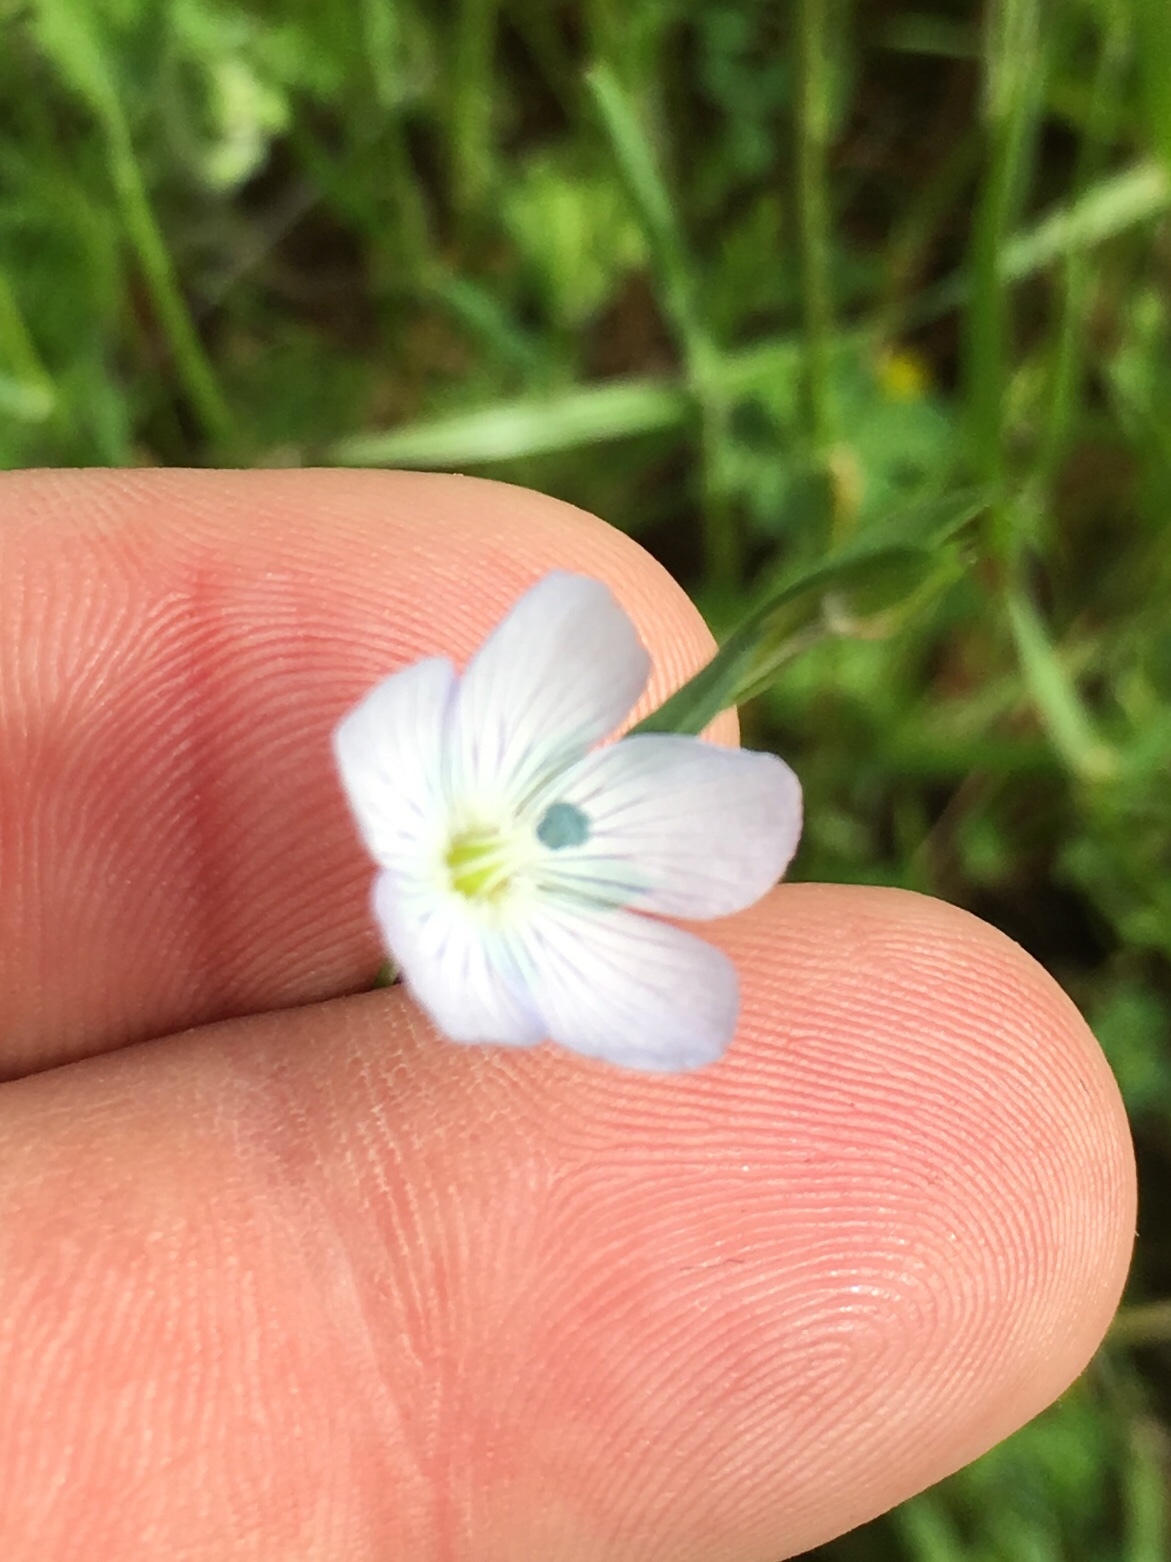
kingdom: Plantae
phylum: Tracheophyta
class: Magnoliopsida
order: Malpighiales
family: Linaceae
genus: Linum
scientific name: Linum bienne
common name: Pale flax
